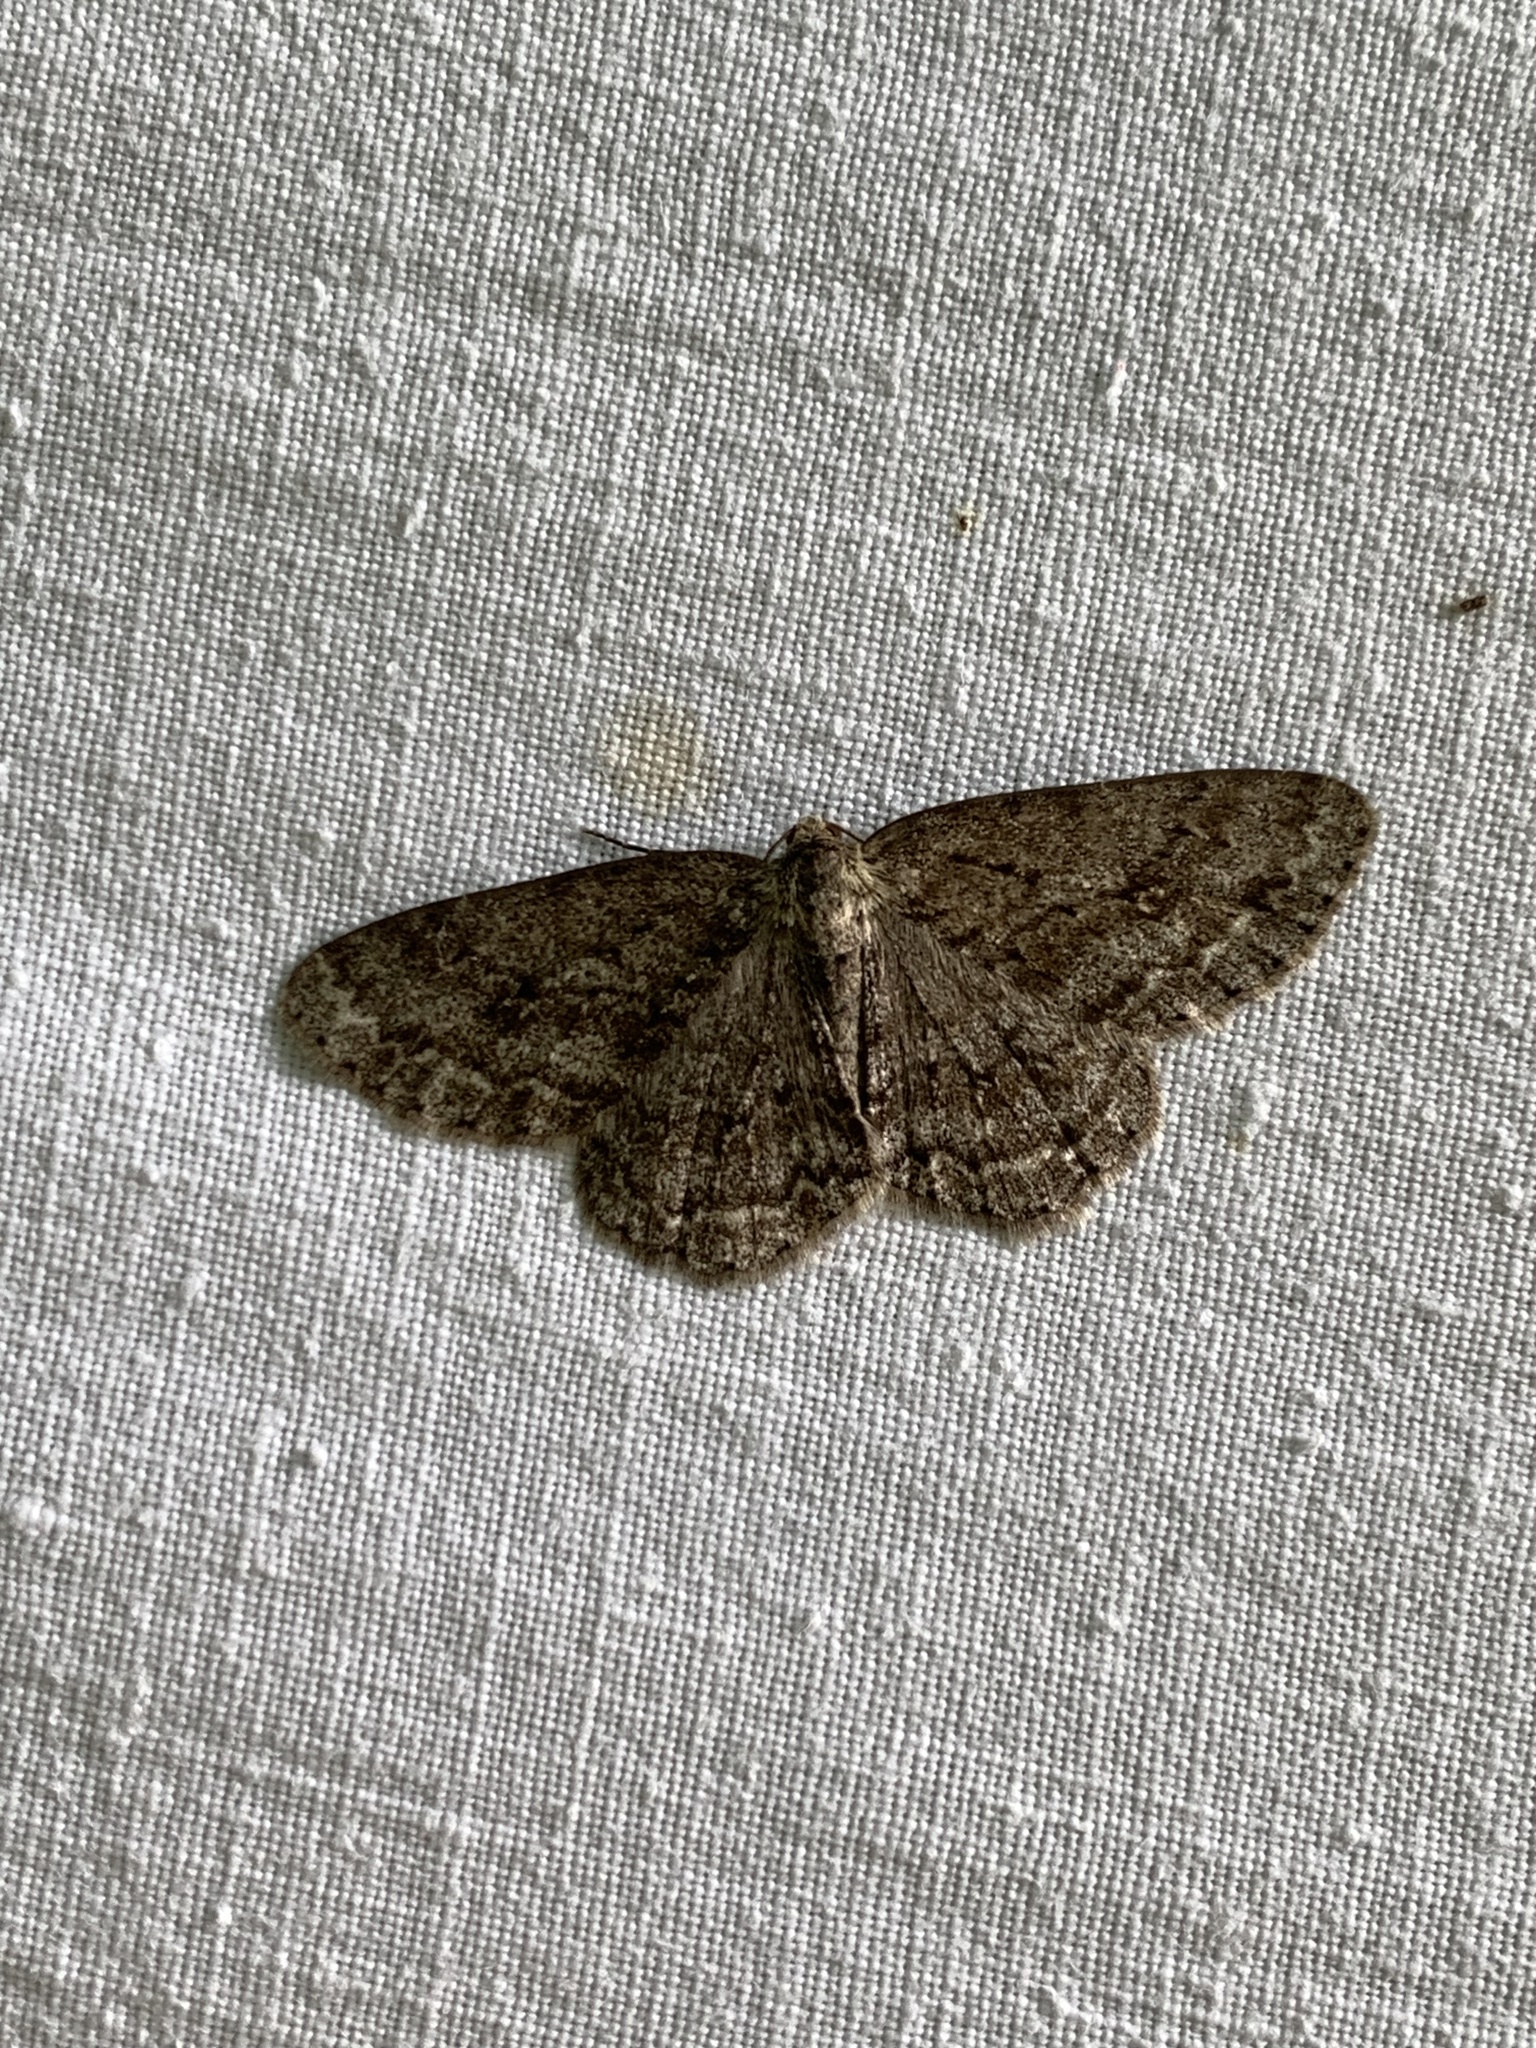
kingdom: Animalia
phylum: Arthropoda
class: Insecta
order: Lepidoptera
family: Geometridae
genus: Ectropis
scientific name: Ectropis crepuscularia
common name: Engrailed
